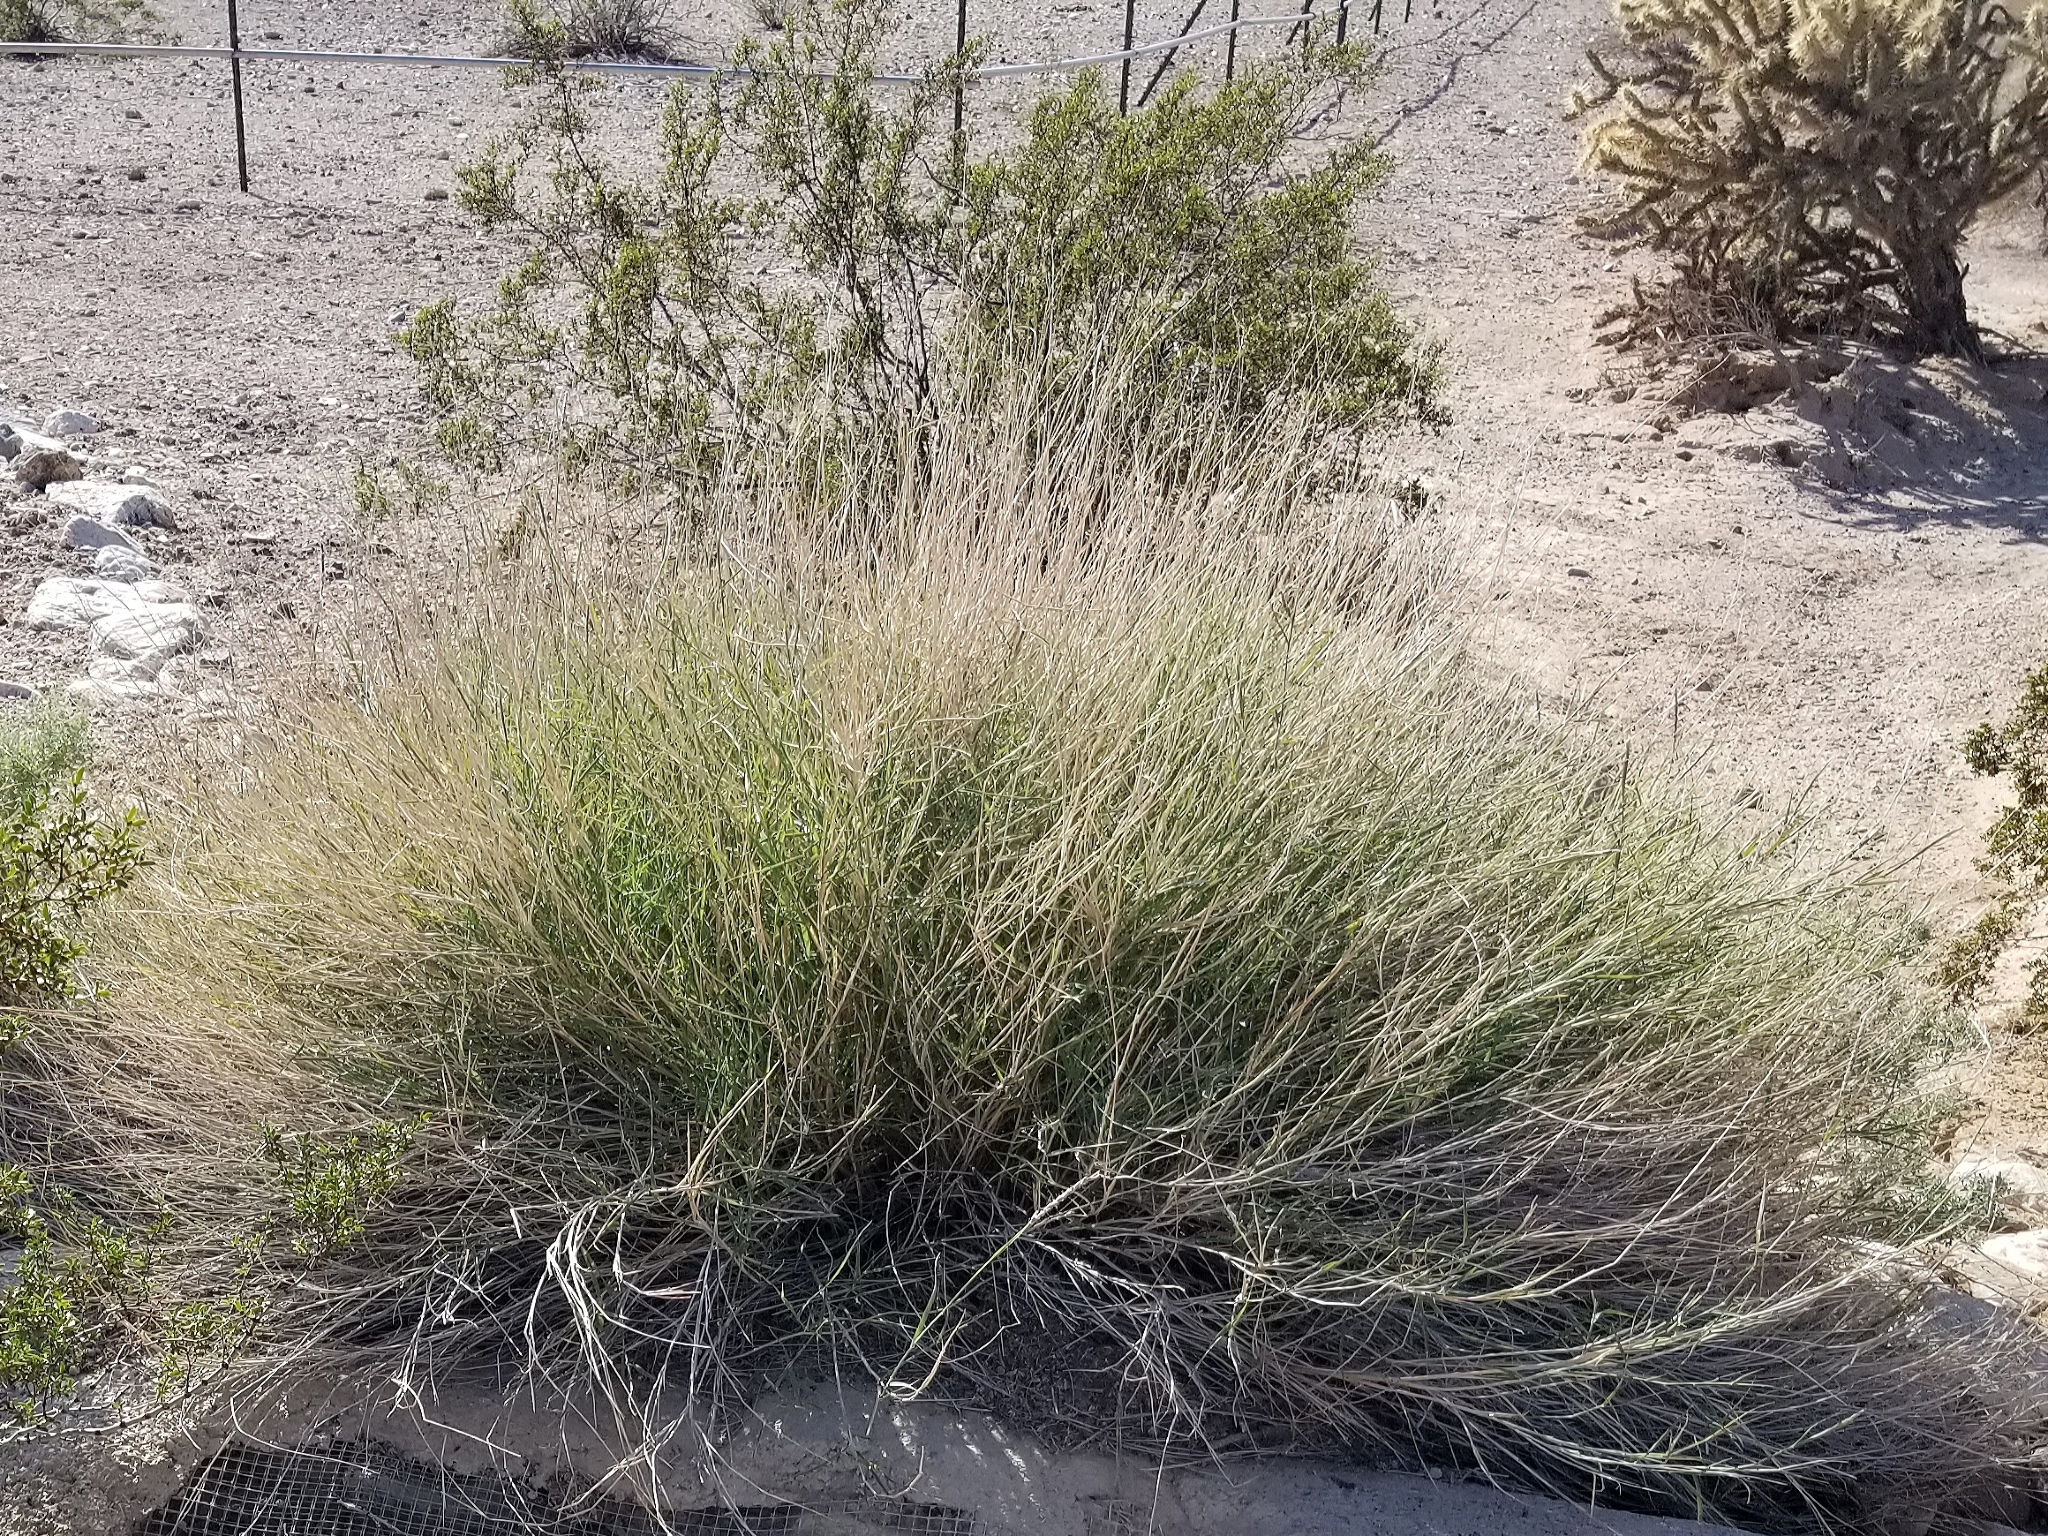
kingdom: Plantae
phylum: Tracheophyta
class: Liliopsida
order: Poales
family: Poaceae
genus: Hilaria
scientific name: Hilaria rigida
